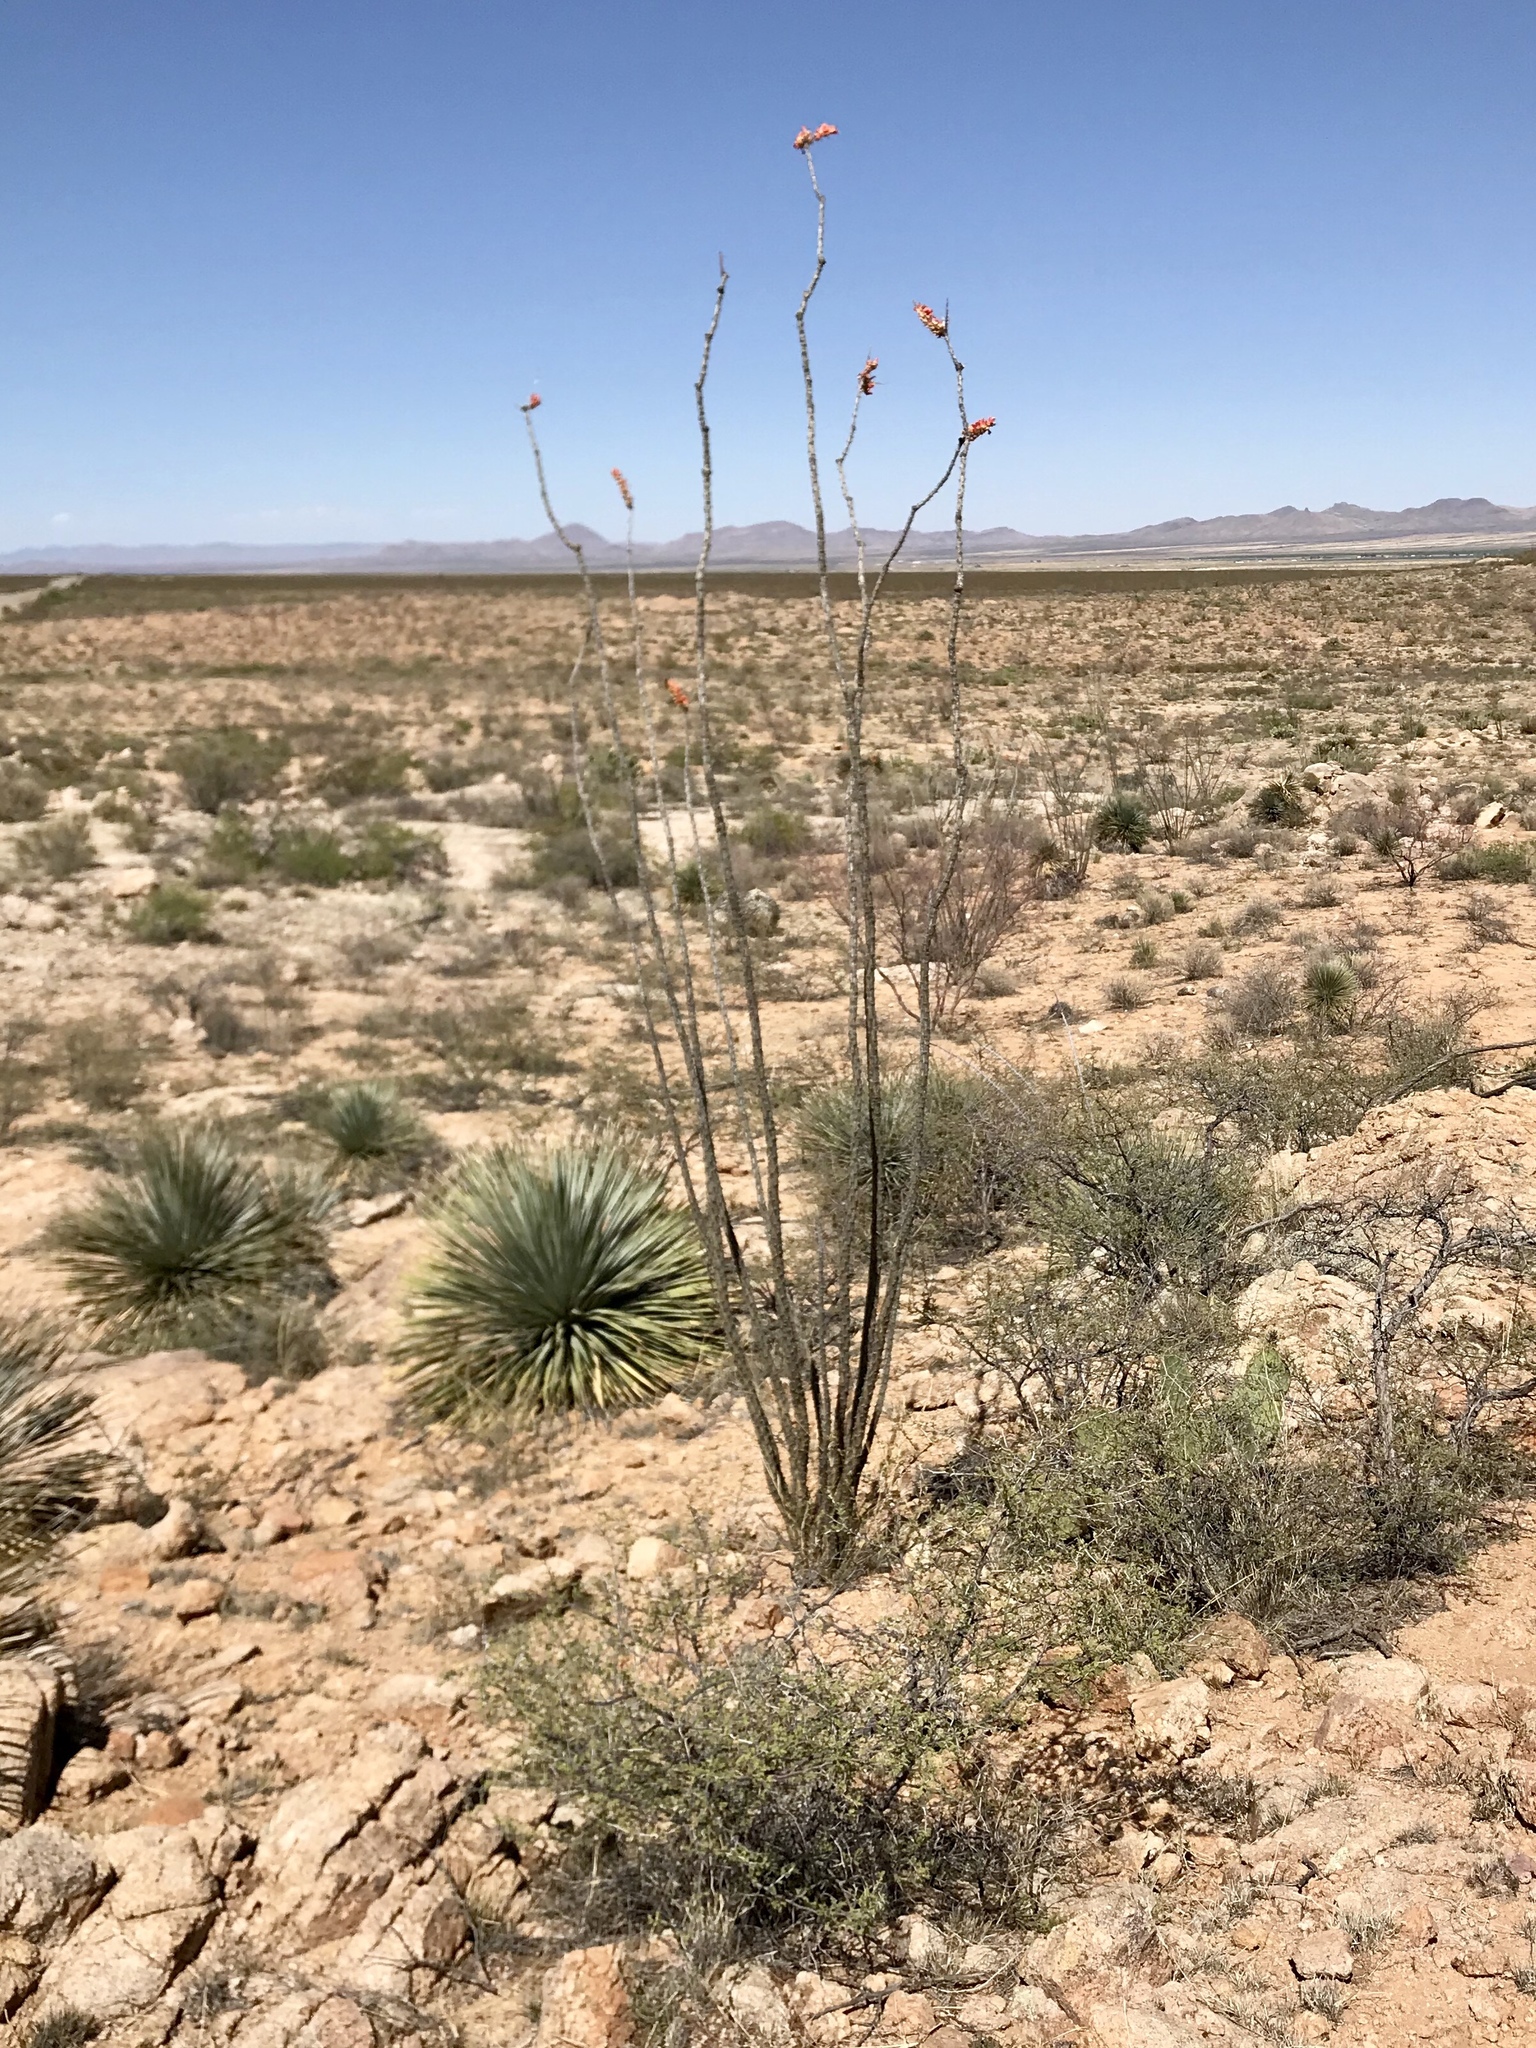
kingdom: Plantae
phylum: Tracheophyta
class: Magnoliopsida
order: Ericales
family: Fouquieriaceae
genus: Fouquieria
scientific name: Fouquieria splendens
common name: Vine-cactus
